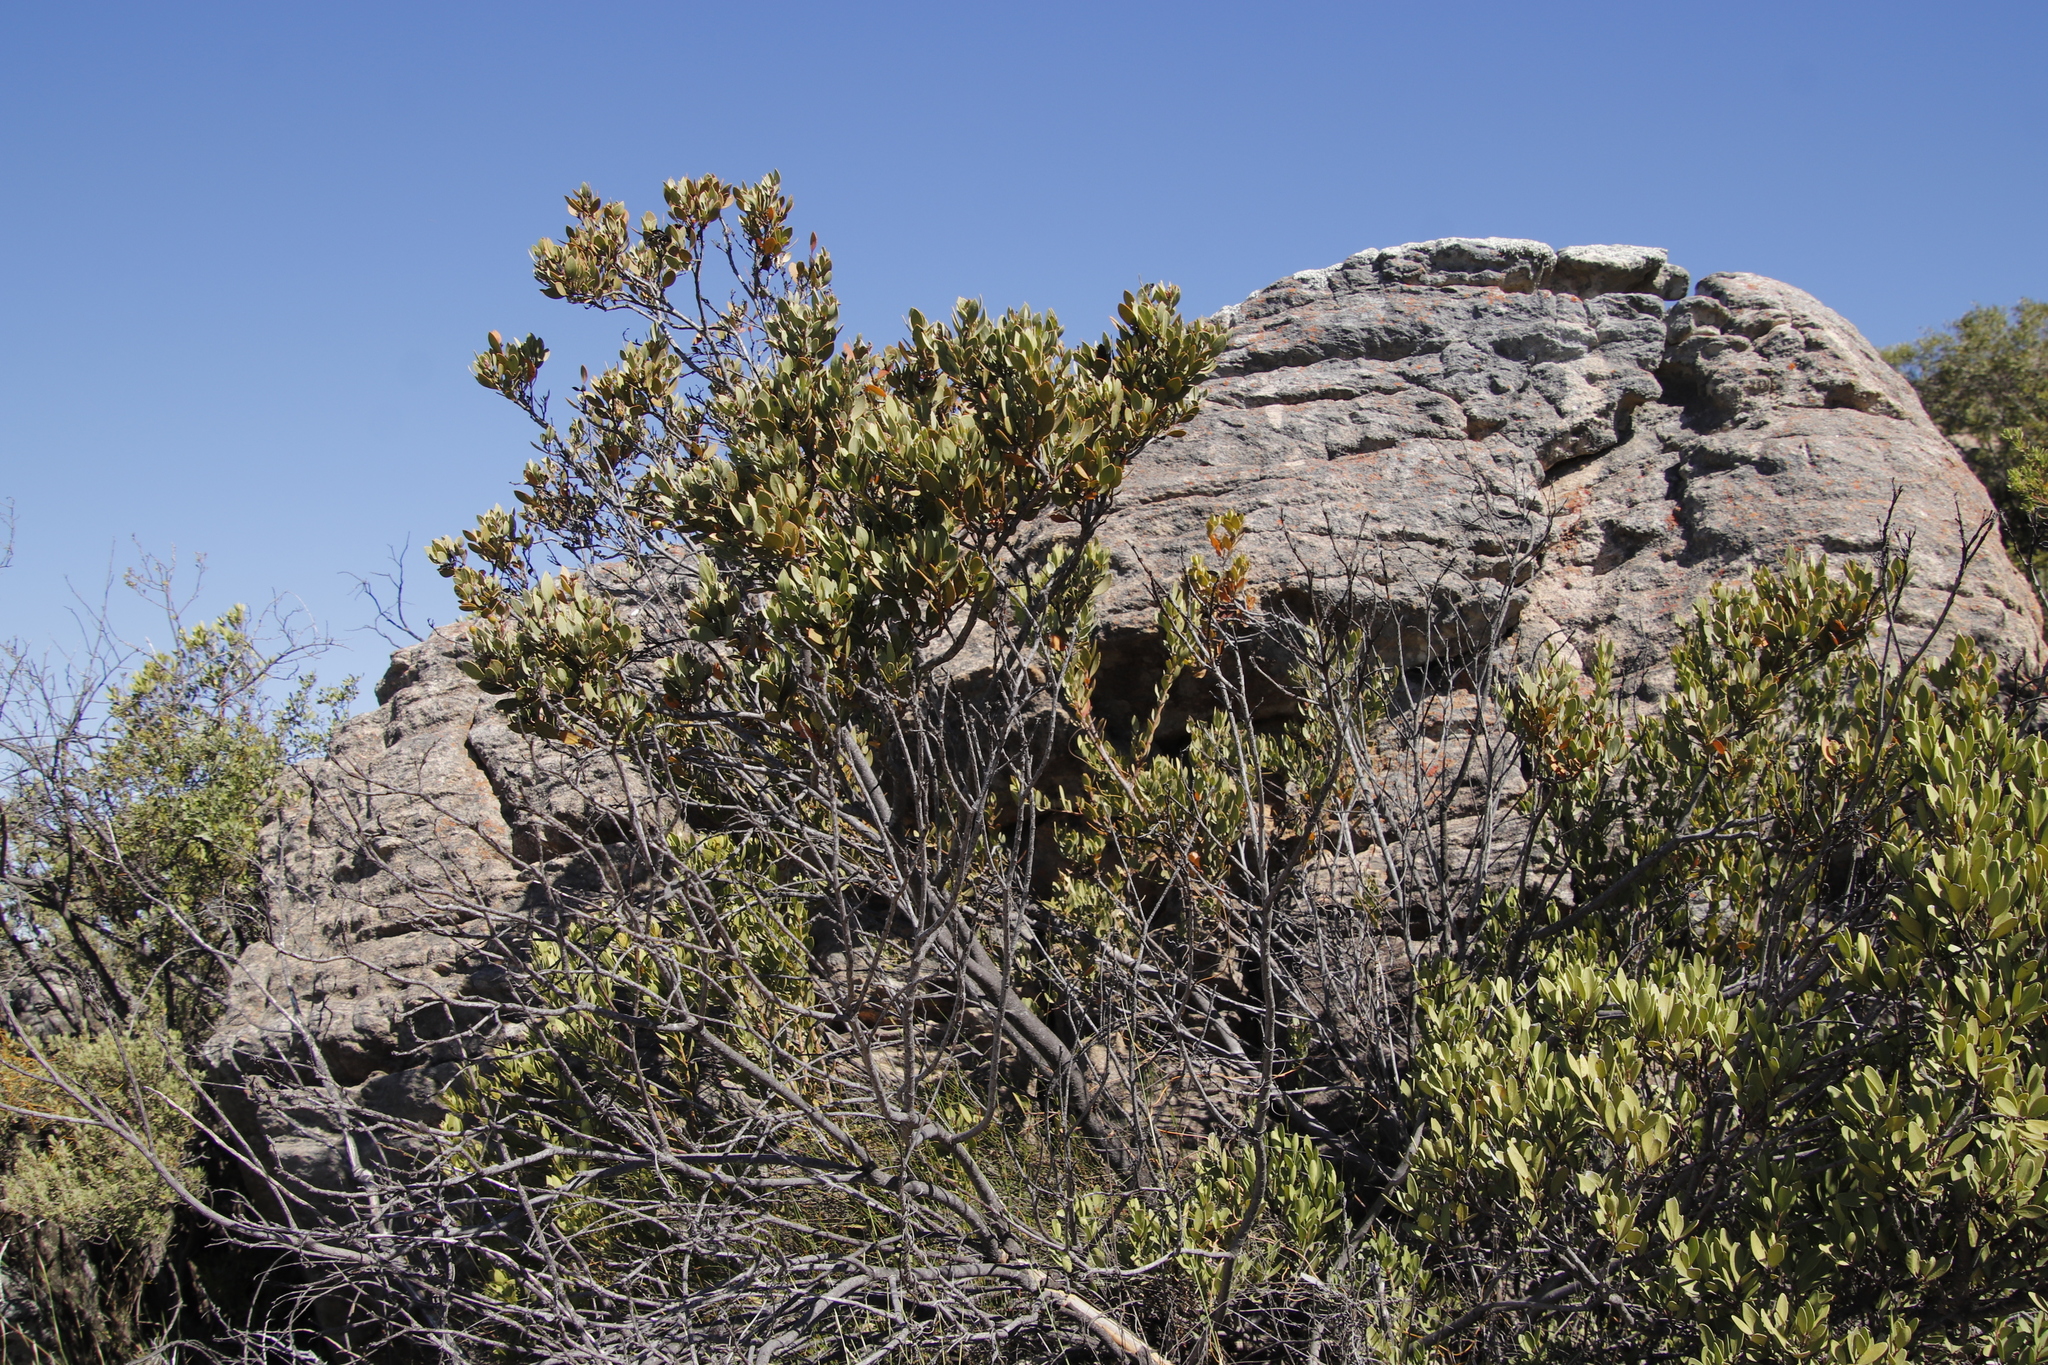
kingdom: Plantae
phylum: Tracheophyta
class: Magnoliopsida
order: Santalales
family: Santalaceae
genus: Osyris
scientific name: Osyris compressa
